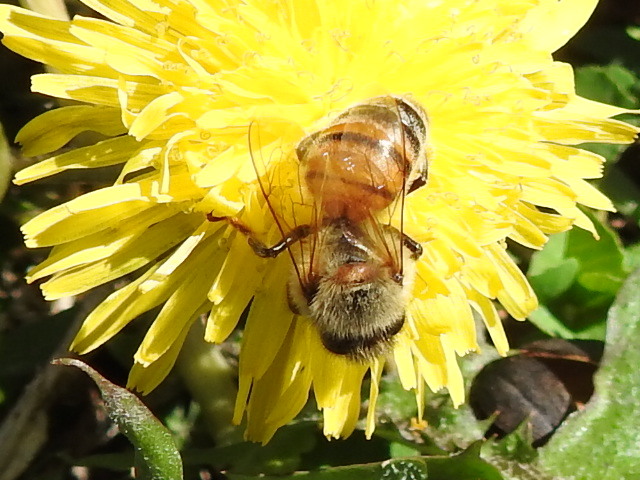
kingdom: Animalia
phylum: Arthropoda
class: Insecta
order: Hymenoptera
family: Apidae
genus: Apis
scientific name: Apis mellifera
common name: Honey bee
